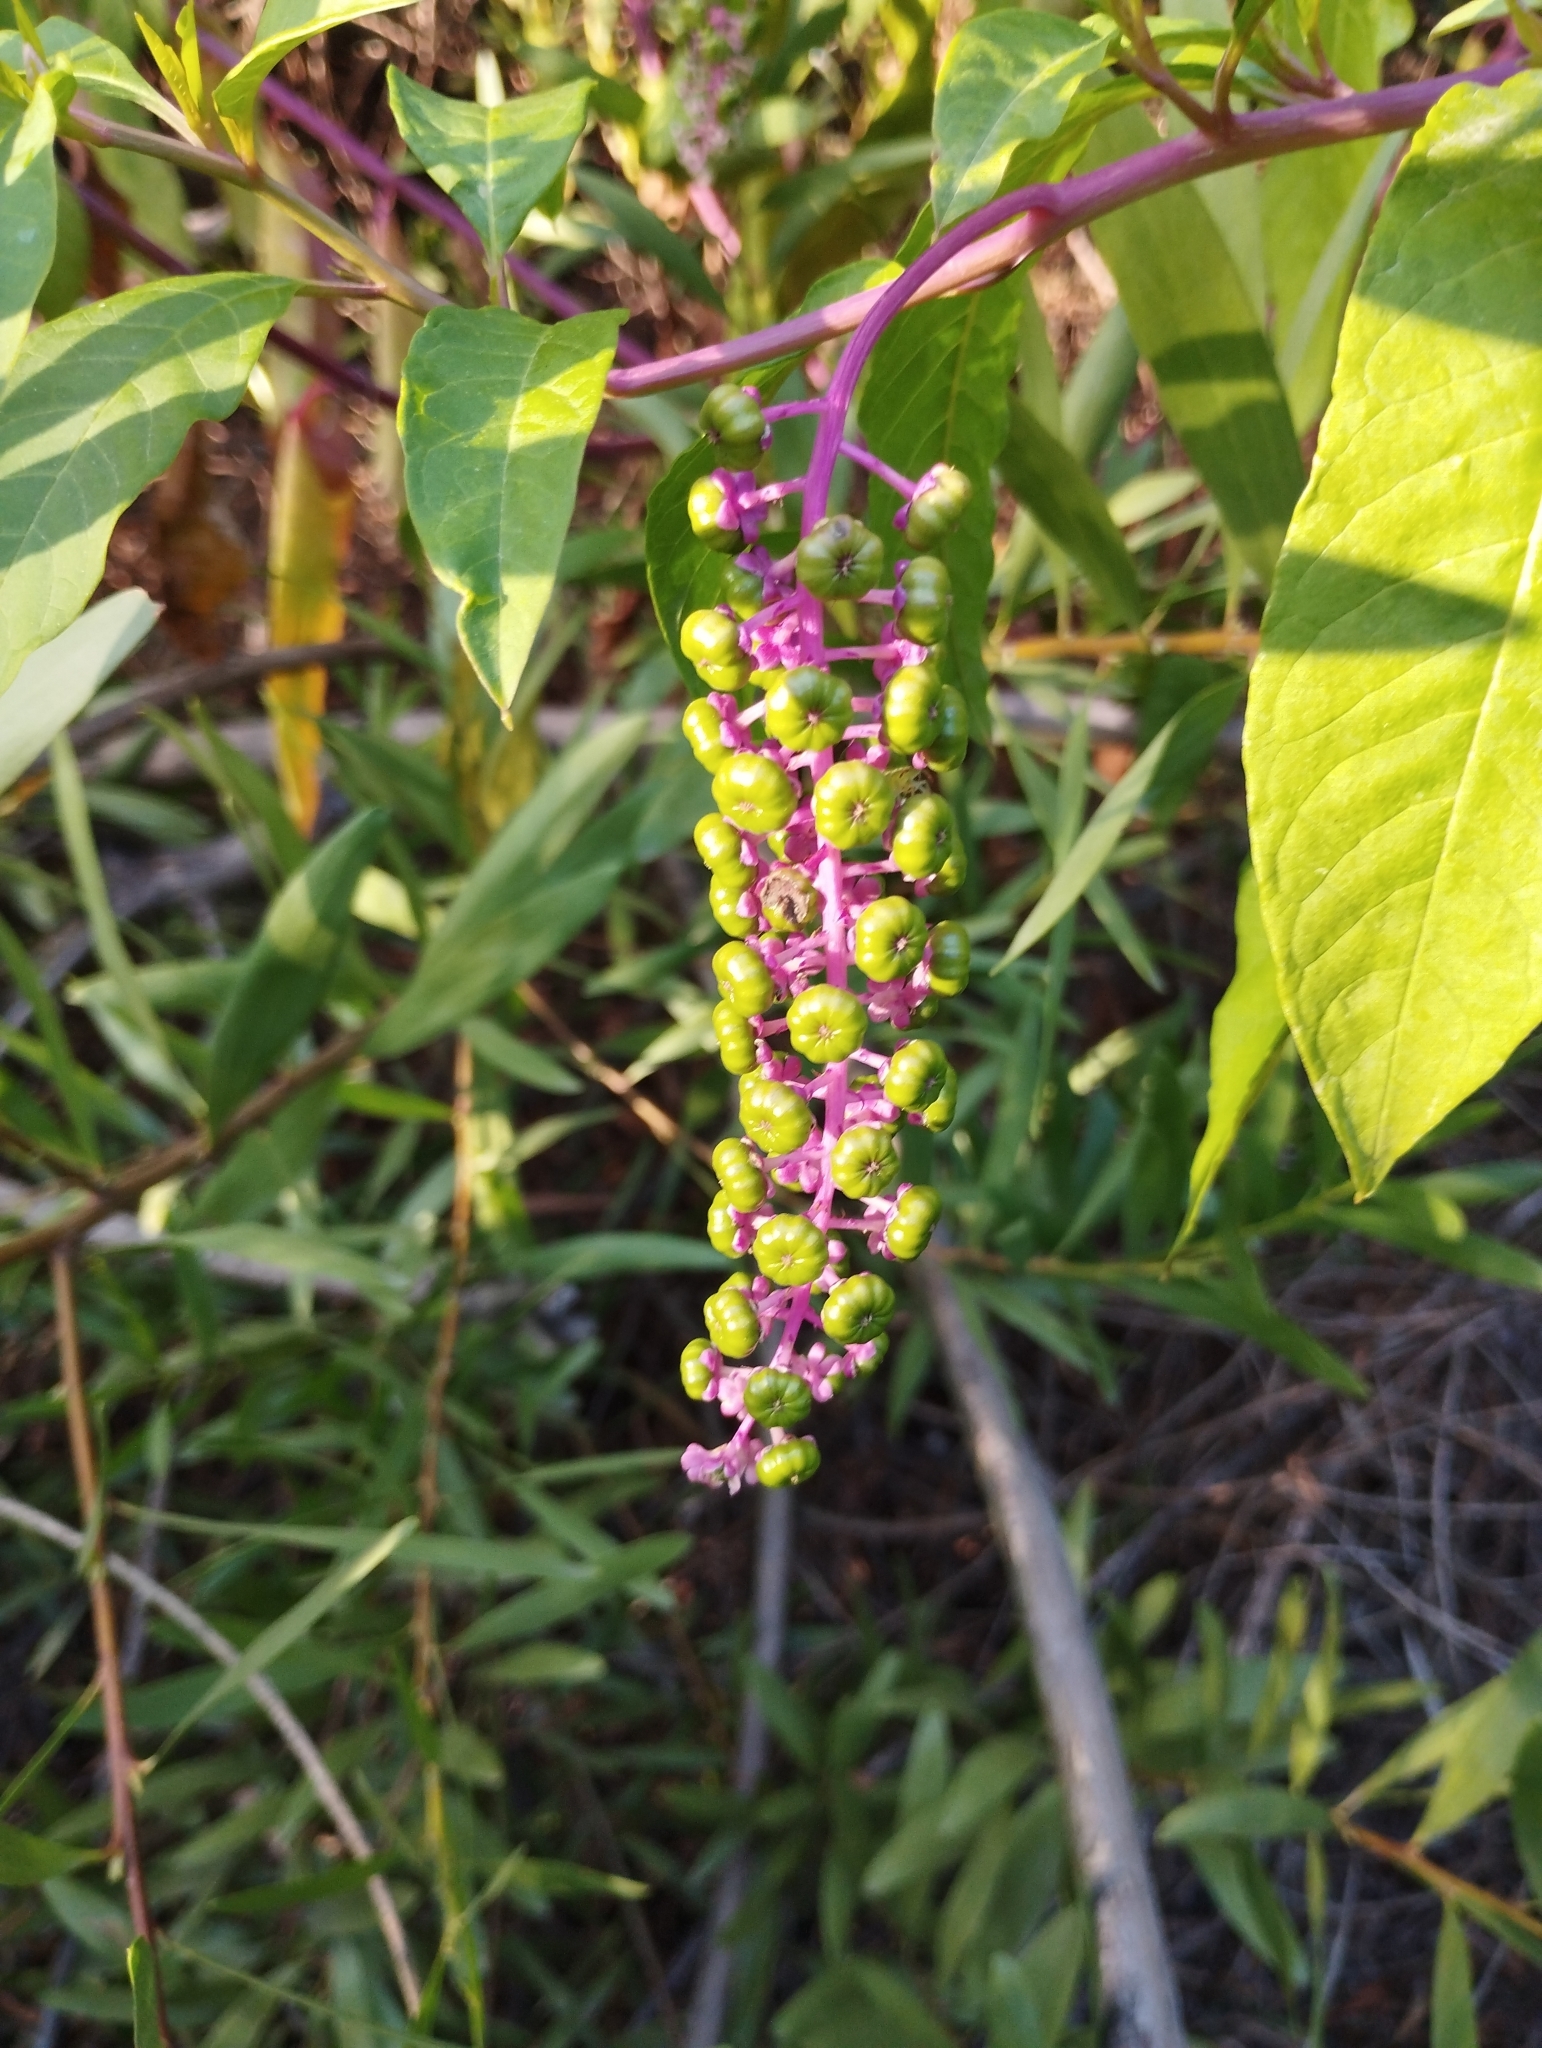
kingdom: Plantae
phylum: Tracheophyta
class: Magnoliopsida
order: Caryophyllales
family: Phytolaccaceae
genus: Phytolacca
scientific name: Phytolacca americana
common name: American pokeweed
